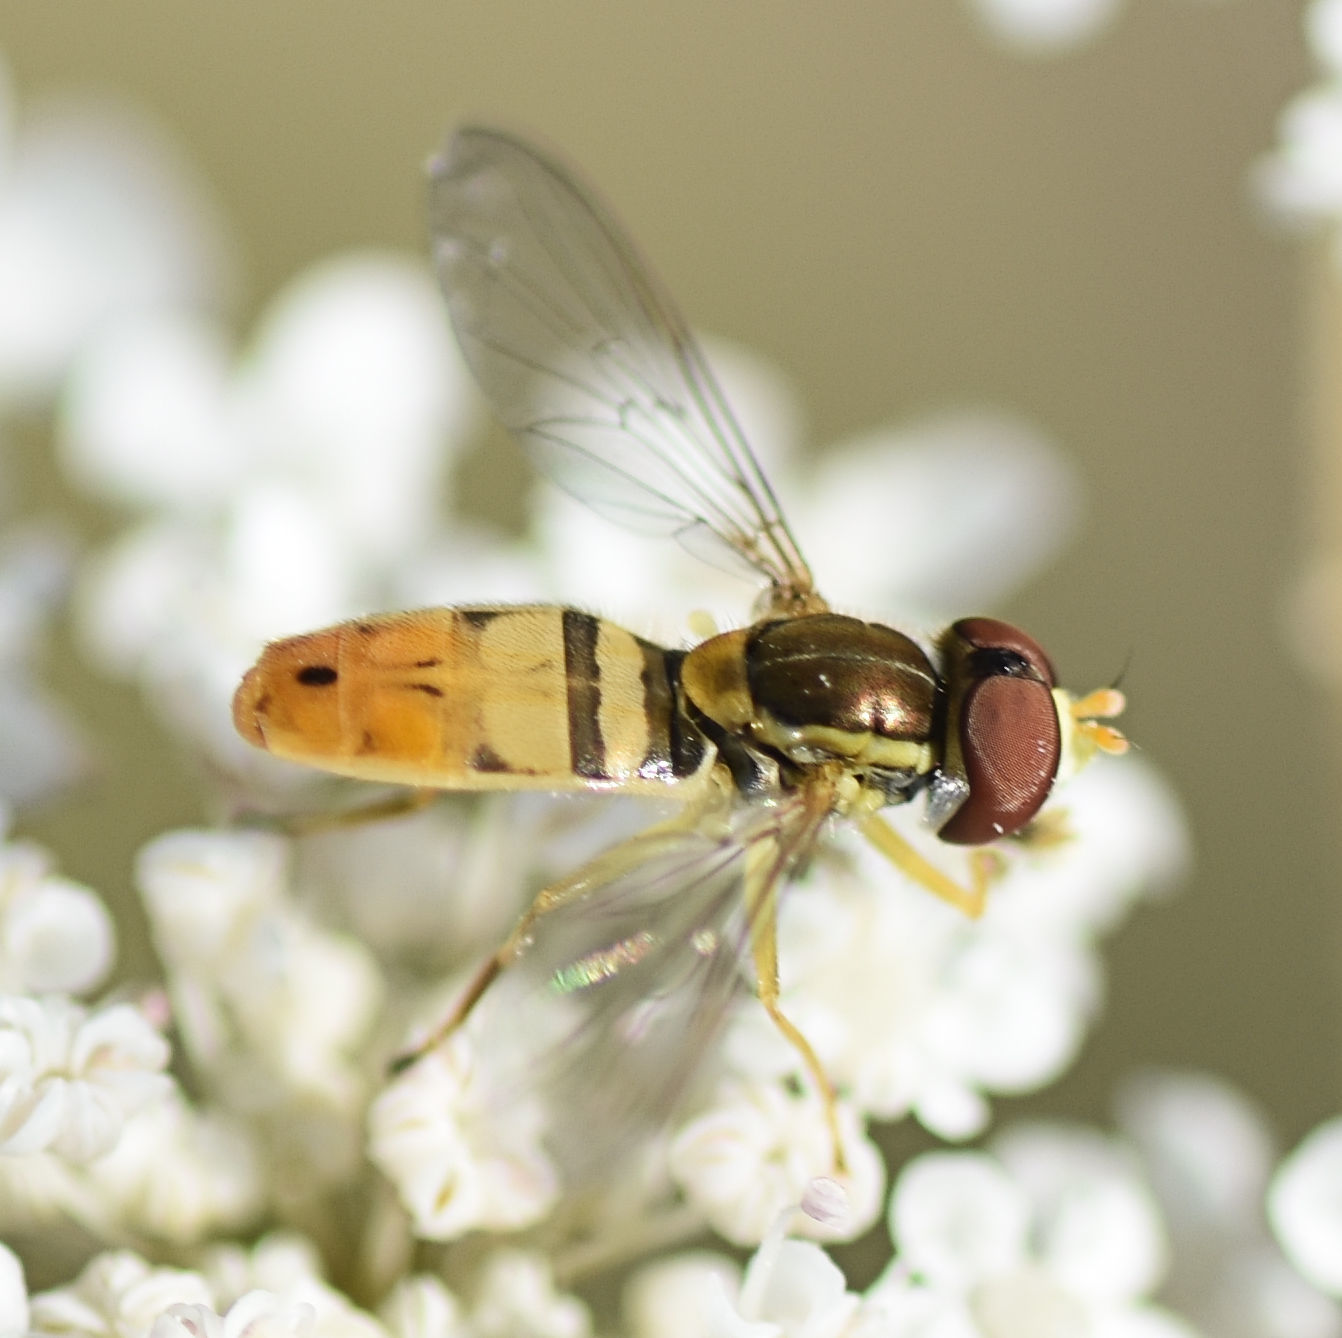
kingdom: Animalia
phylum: Arthropoda
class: Insecta
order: Diptera
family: Syrphidae
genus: Toxomerus
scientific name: Toxomerus marginatus
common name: Syrphid fly
